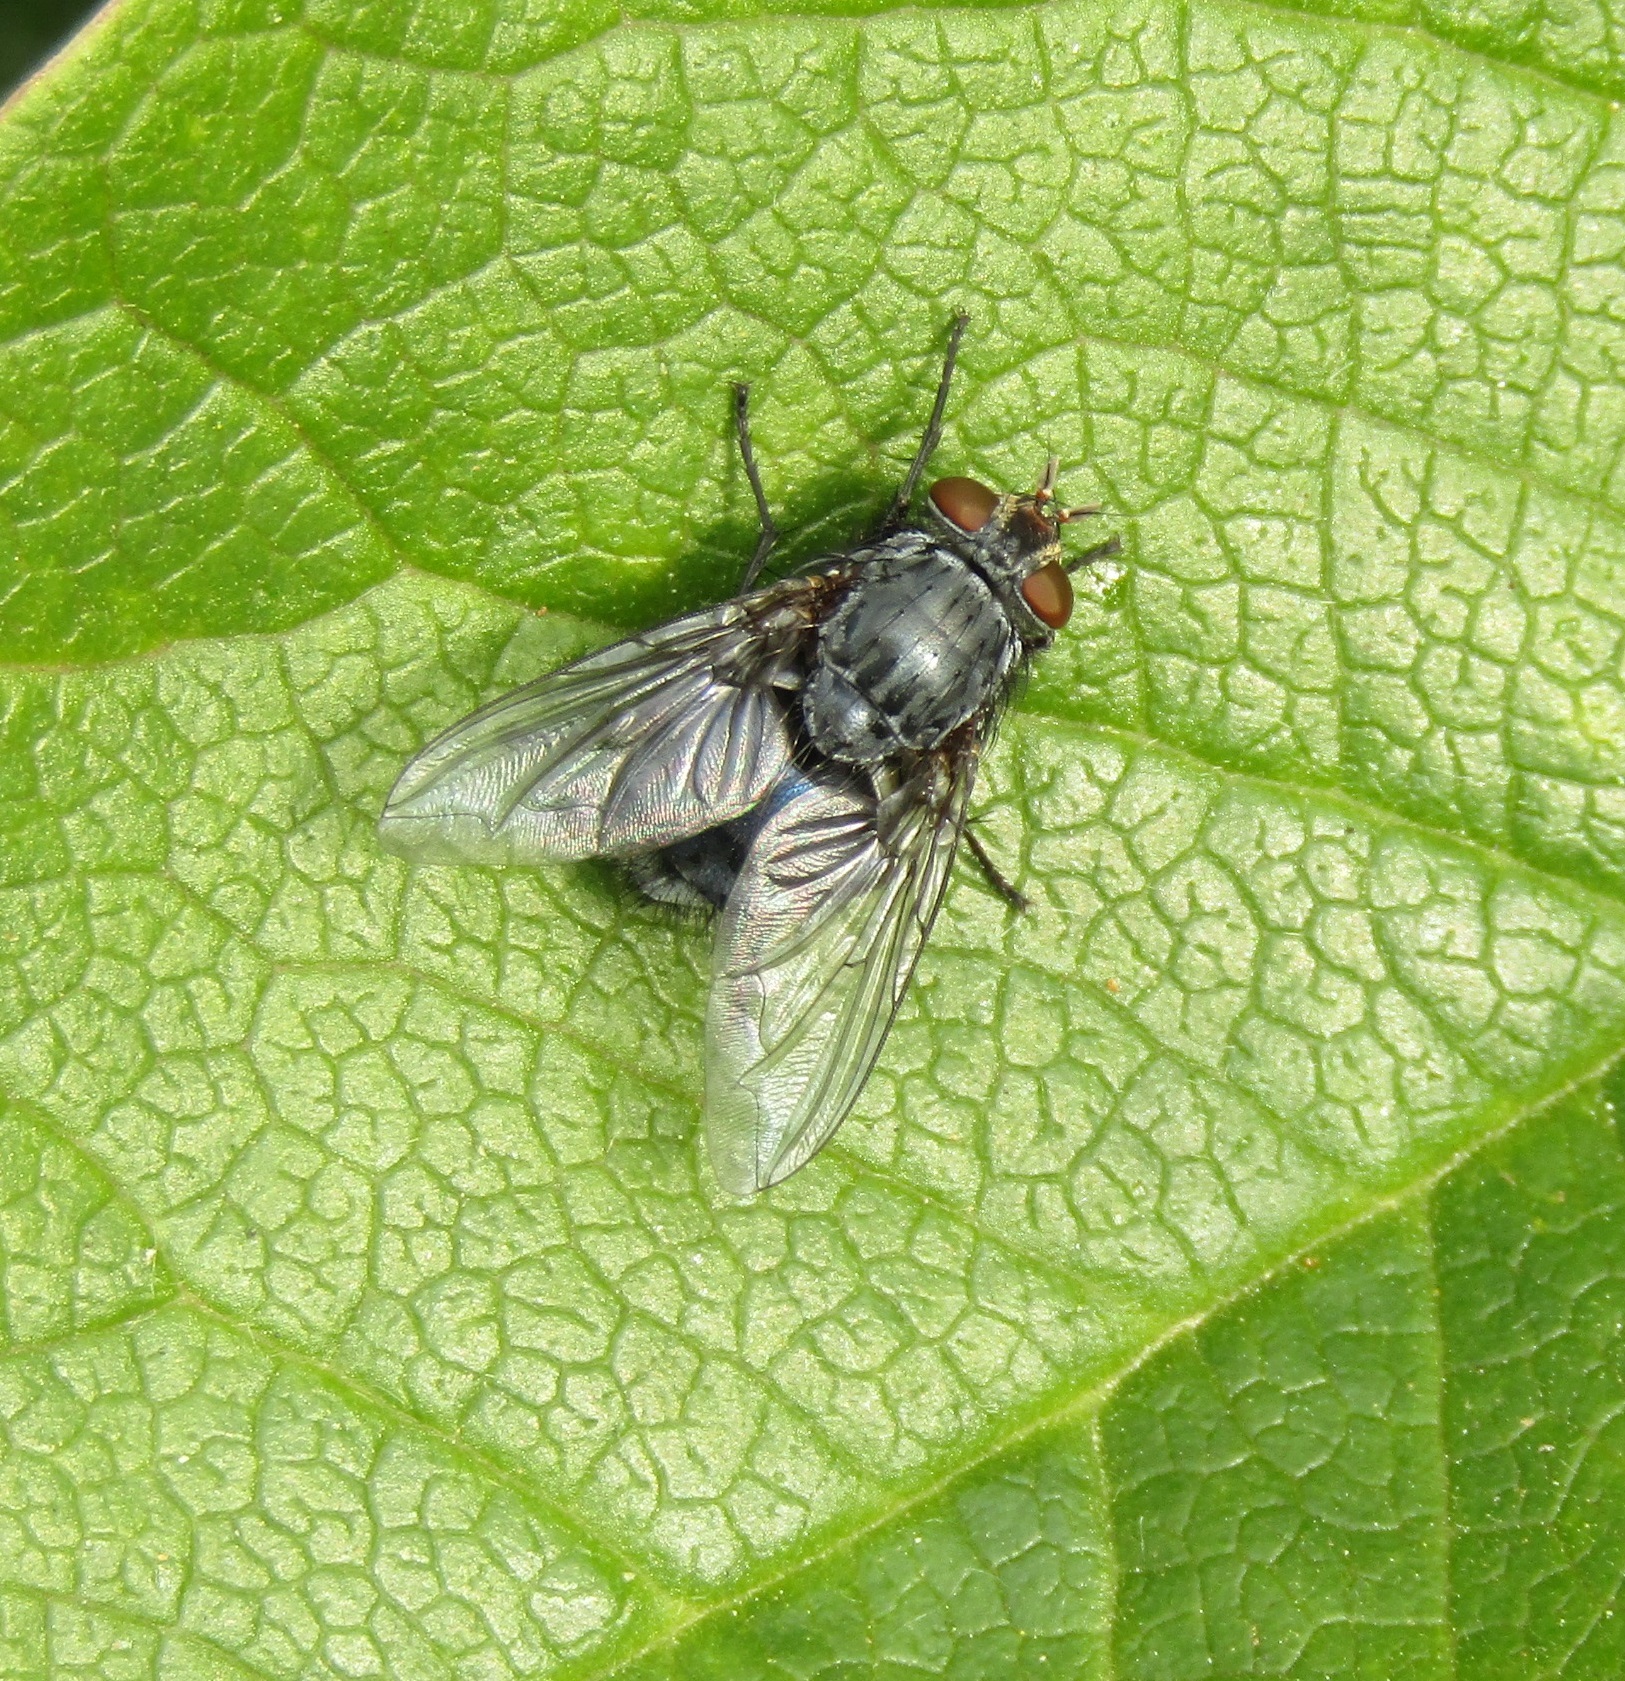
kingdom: Animalia
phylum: Arthropoda
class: Insecta
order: Diptera
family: Calliphoridae
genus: Calliphora
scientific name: Calliphora vicina
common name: Common blow flie
